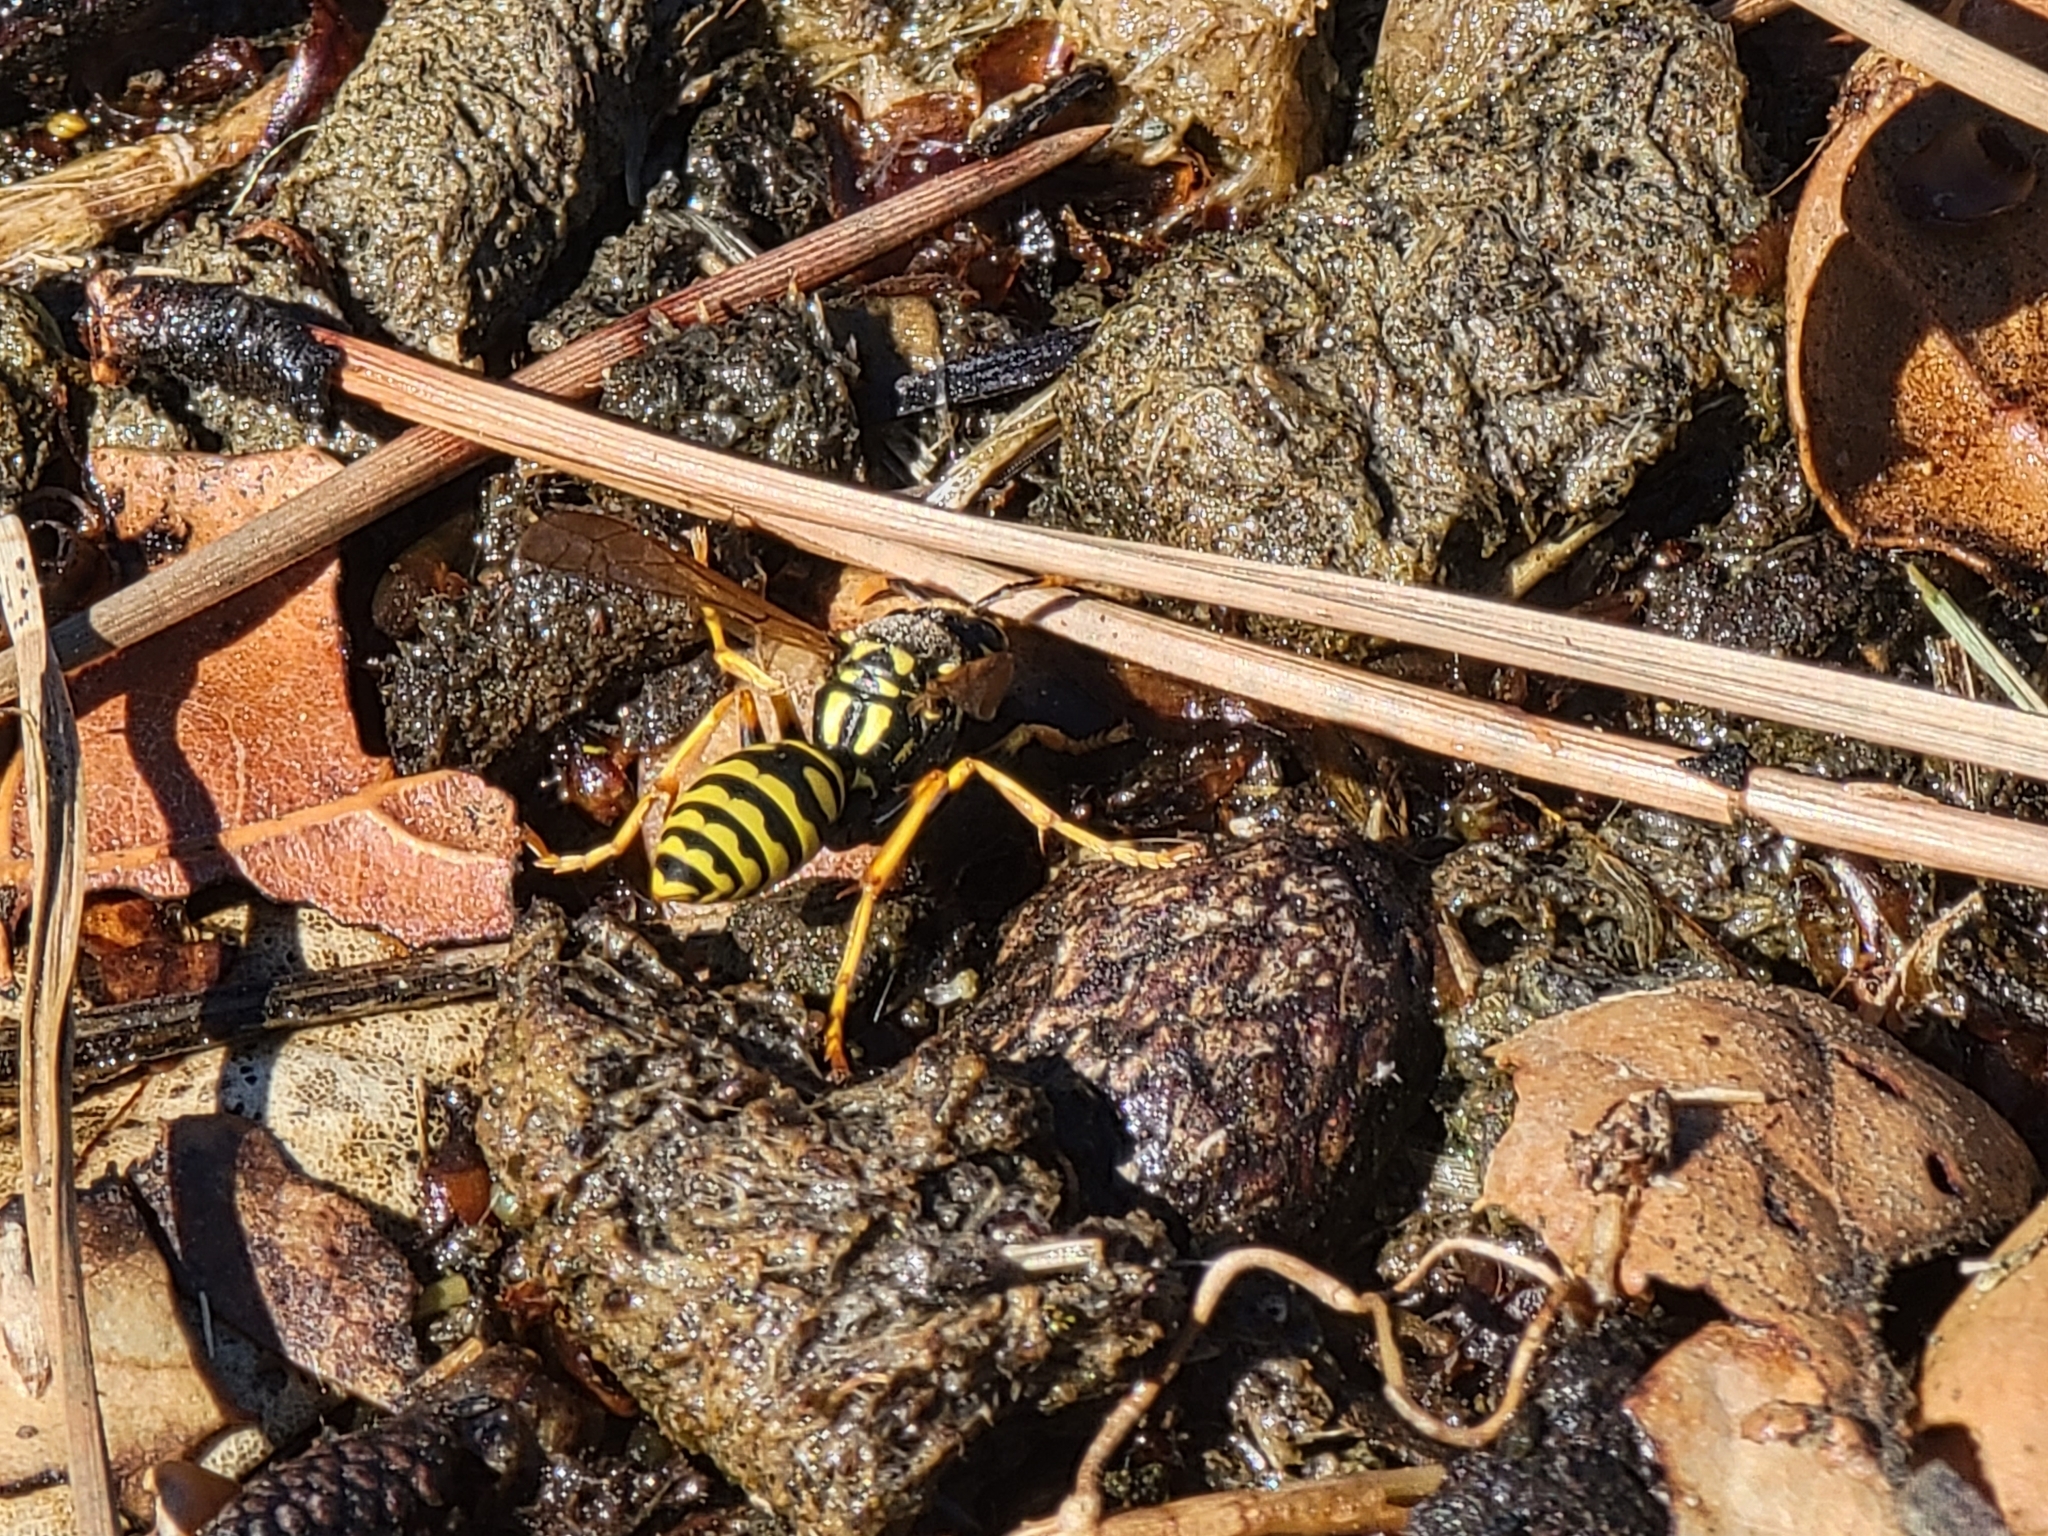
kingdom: Animalia
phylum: Arthropoda
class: Insecta
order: Hymenoptera
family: Eumenidae
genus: Polistes
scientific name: Polistes dominula
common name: Paper wasp
